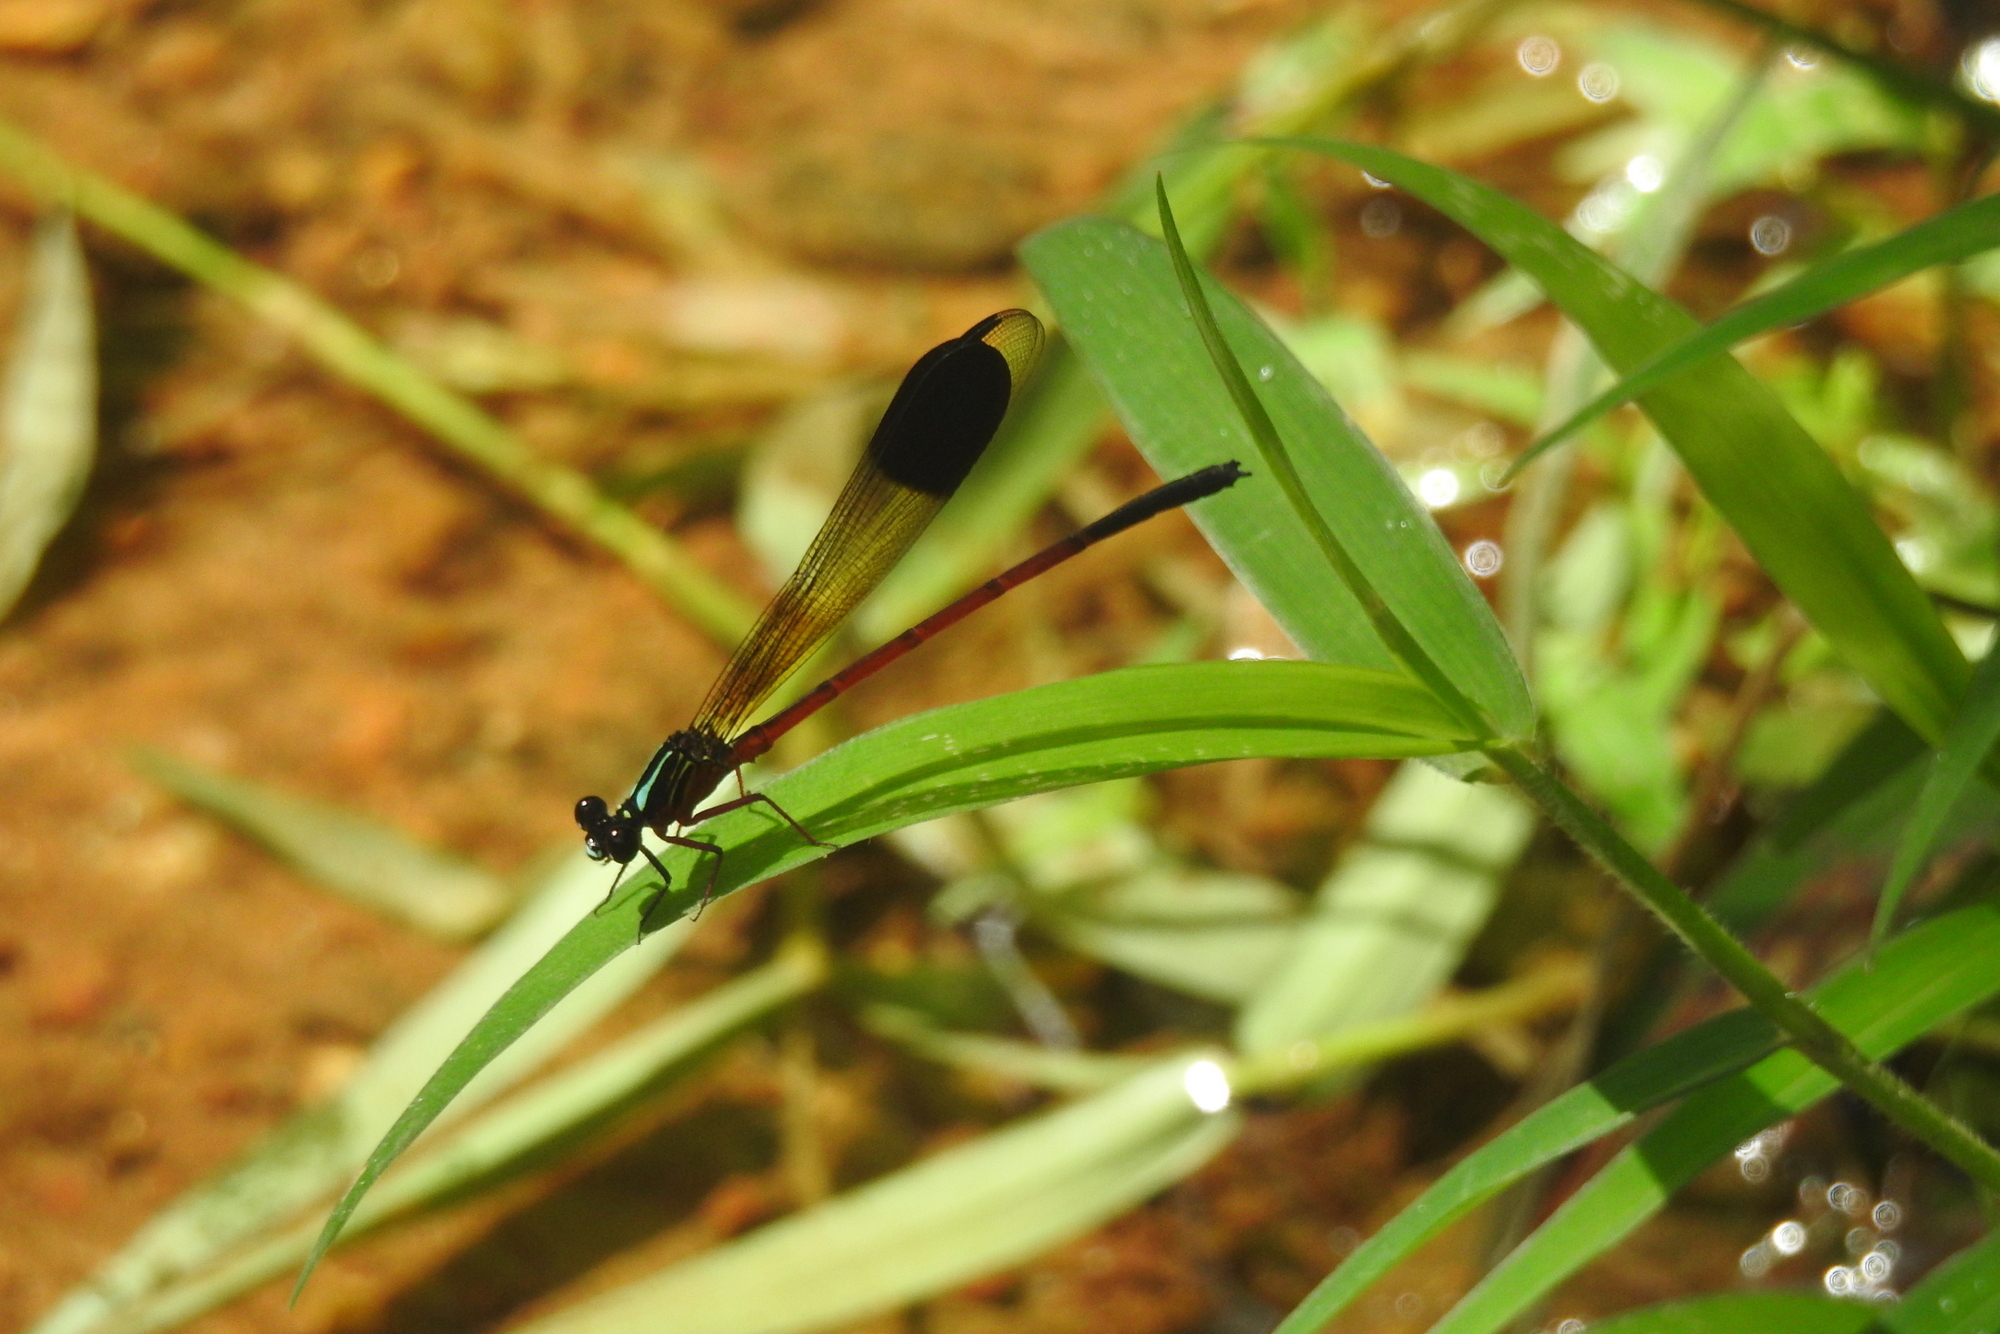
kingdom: Animalia
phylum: Arthropoda
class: Insecta
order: Odonata
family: Euphaeidae
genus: Euphaea
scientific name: Euphaea fraseri
